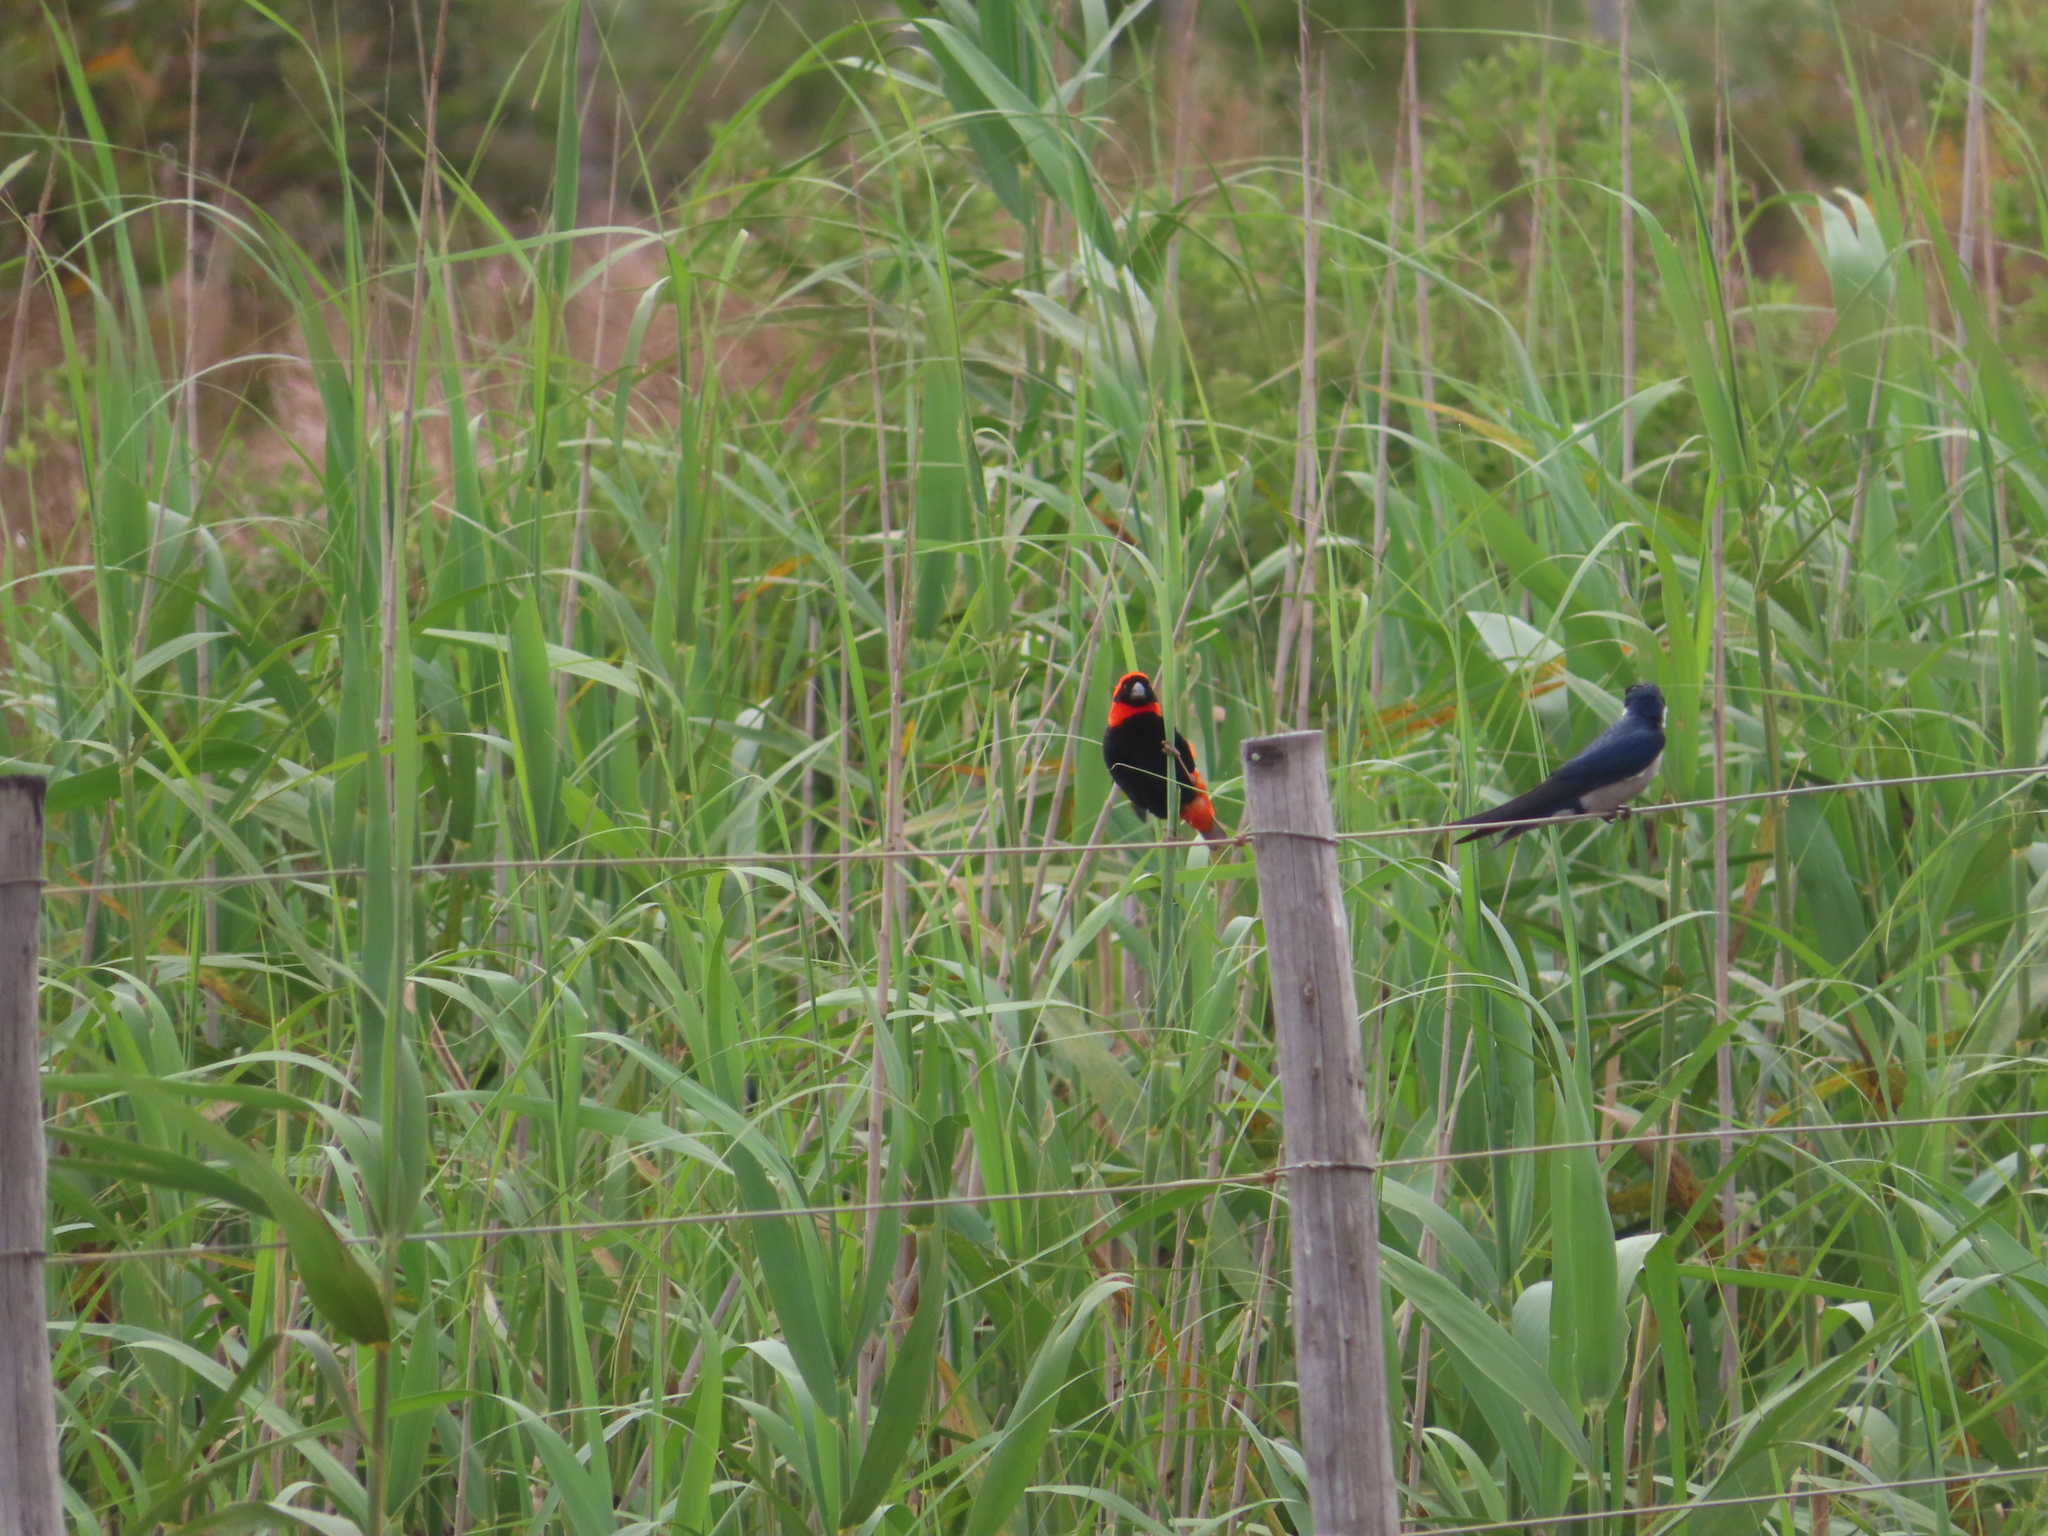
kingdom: Animalia
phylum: Chordata
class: Aves
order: Passeriformes
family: Hirundinidae
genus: Hirundo
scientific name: Hirundo rustica
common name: Barn swallow
